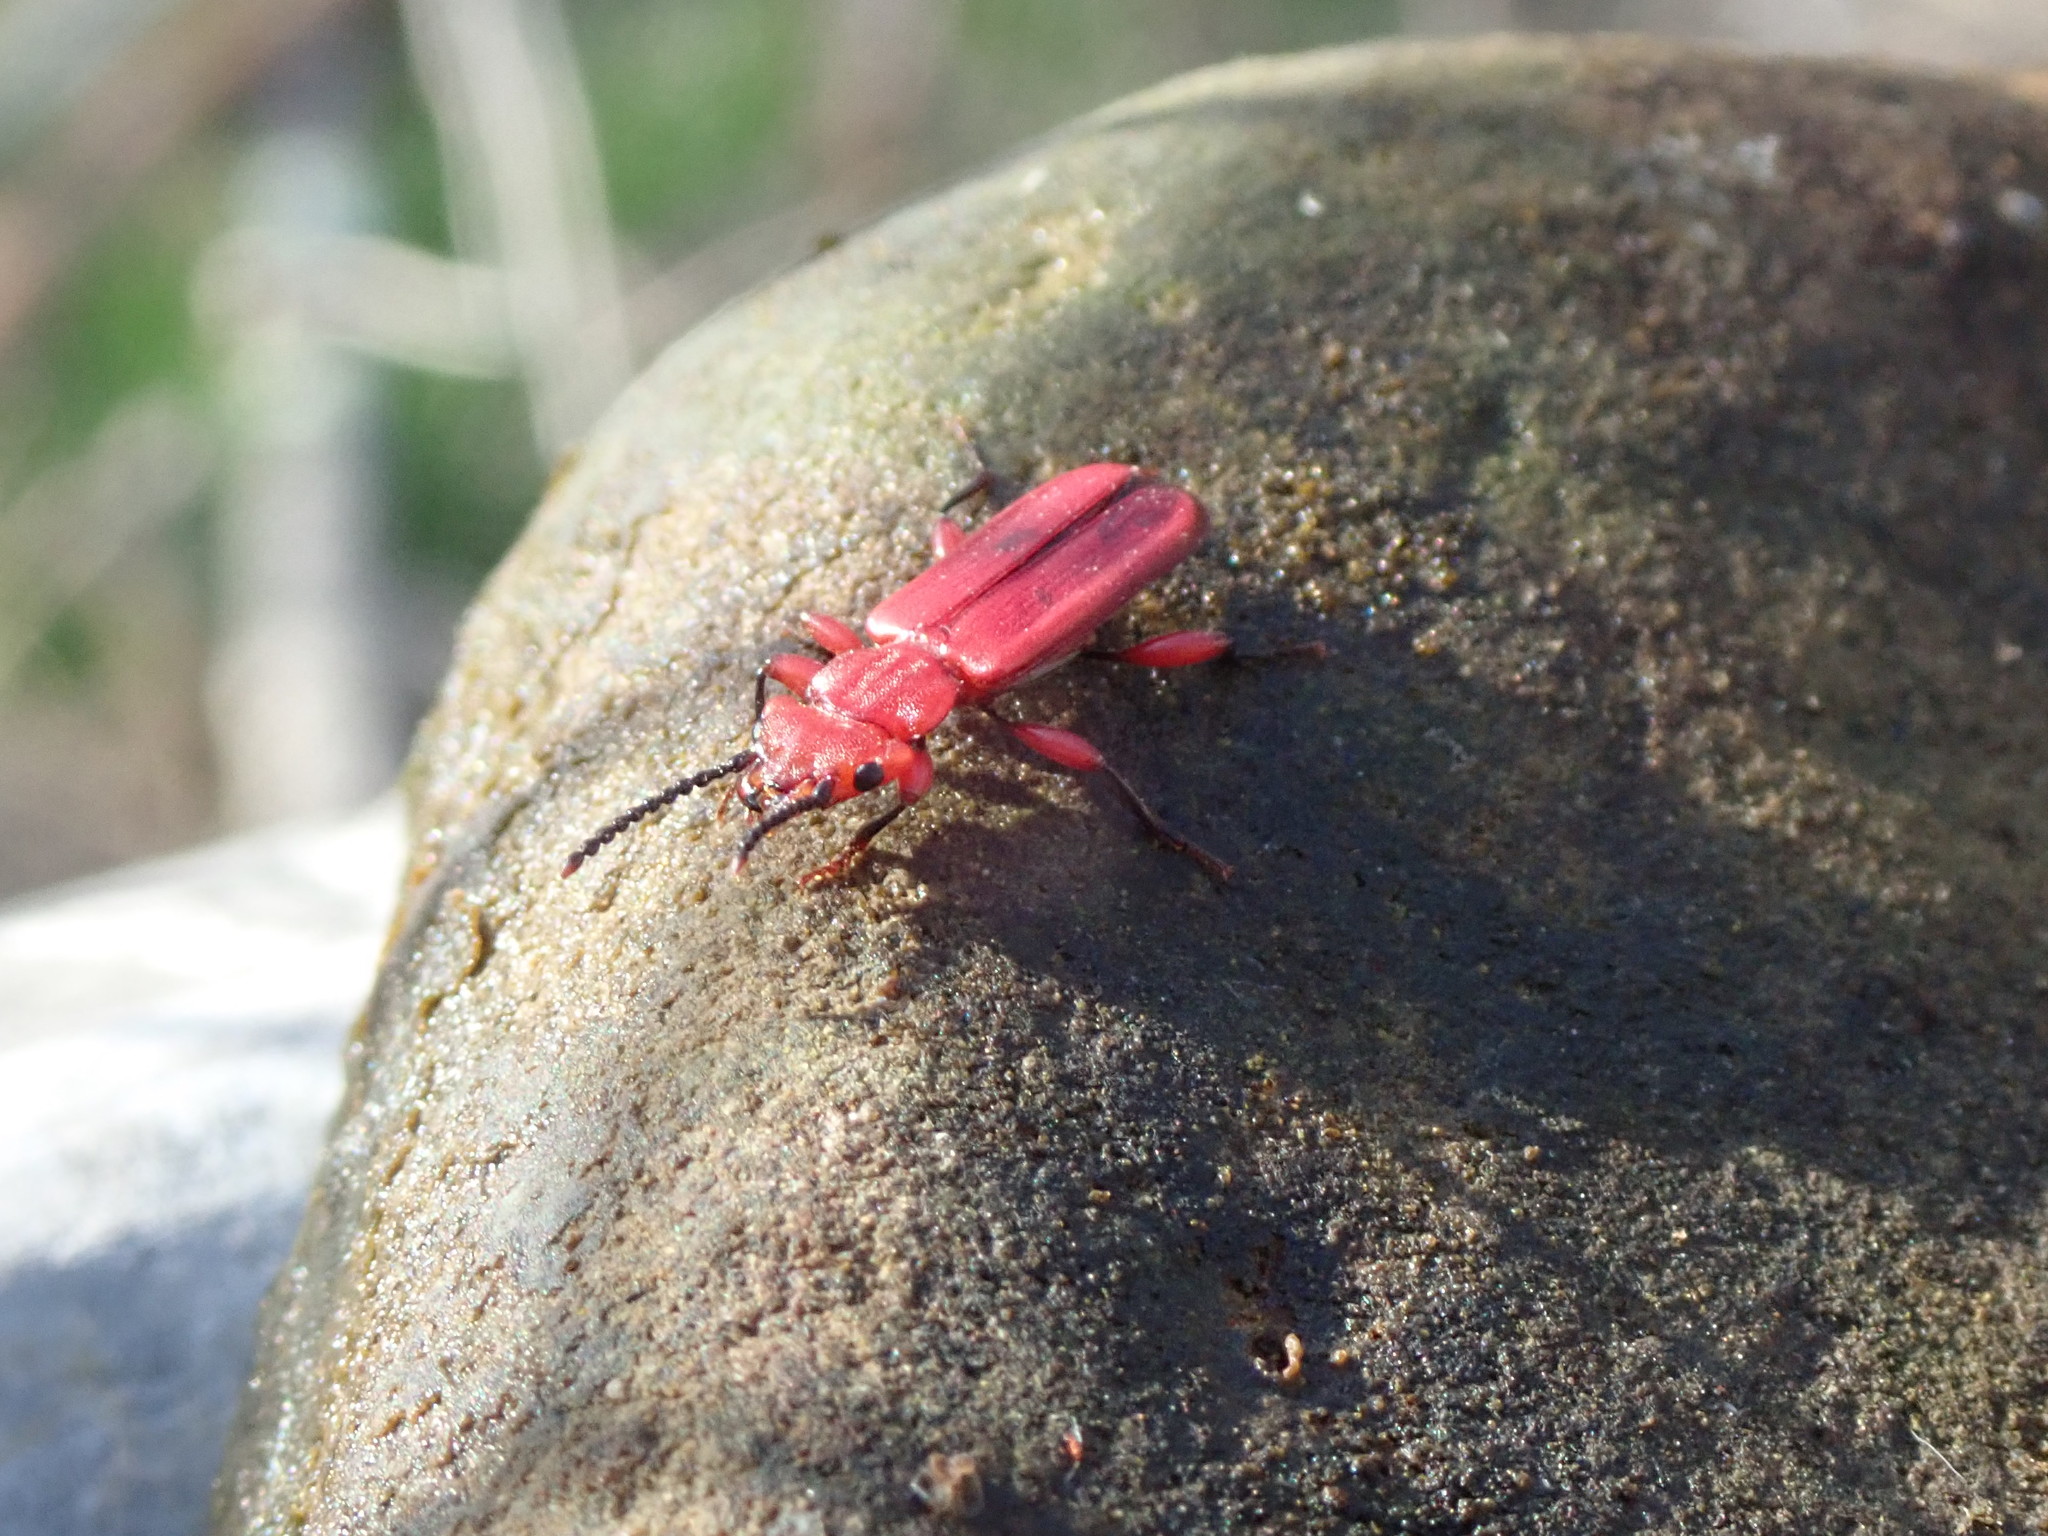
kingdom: Animalia
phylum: Arthropoda
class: Insecta
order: Coleoptera
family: Cucujidae
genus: Cucujus
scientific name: Cucujus clavipes
